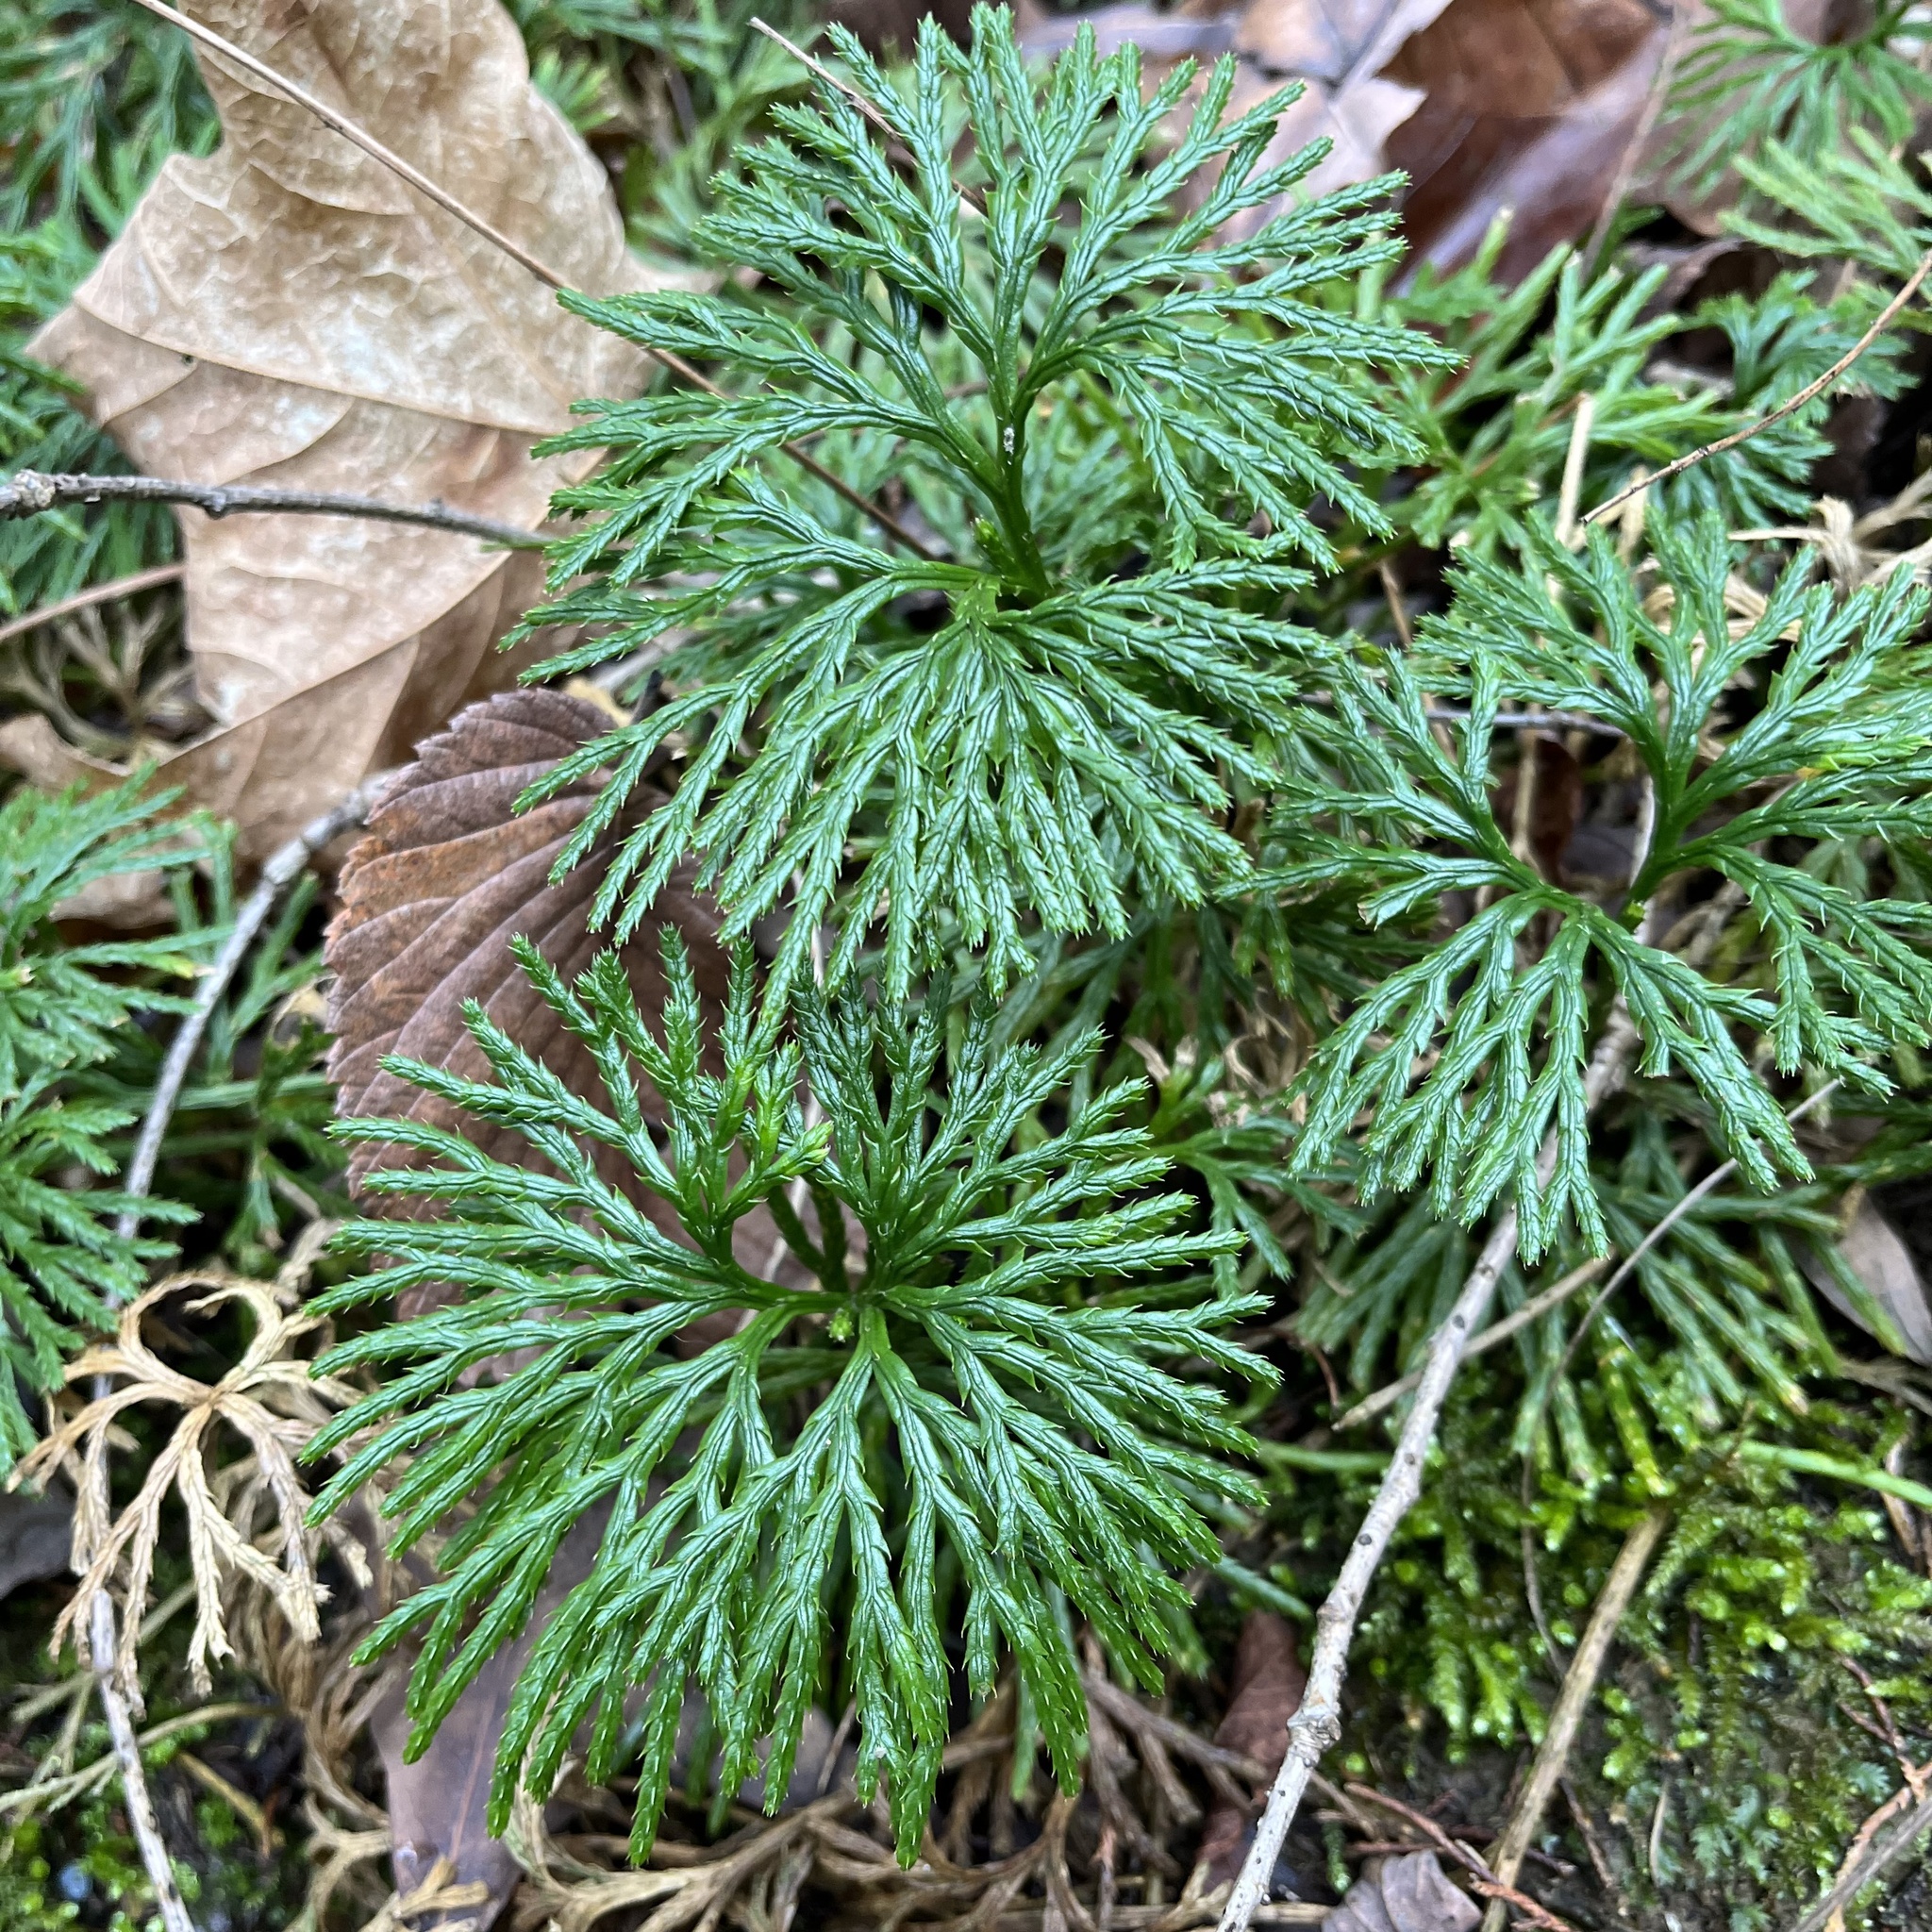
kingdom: Plantae
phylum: Tracheophyta
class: Lycopodiopsida
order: Lycopodiales
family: Lycopodiaceae
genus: Diphasiastrum
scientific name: Diphasiastrum digitatum
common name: Southern running-pine
